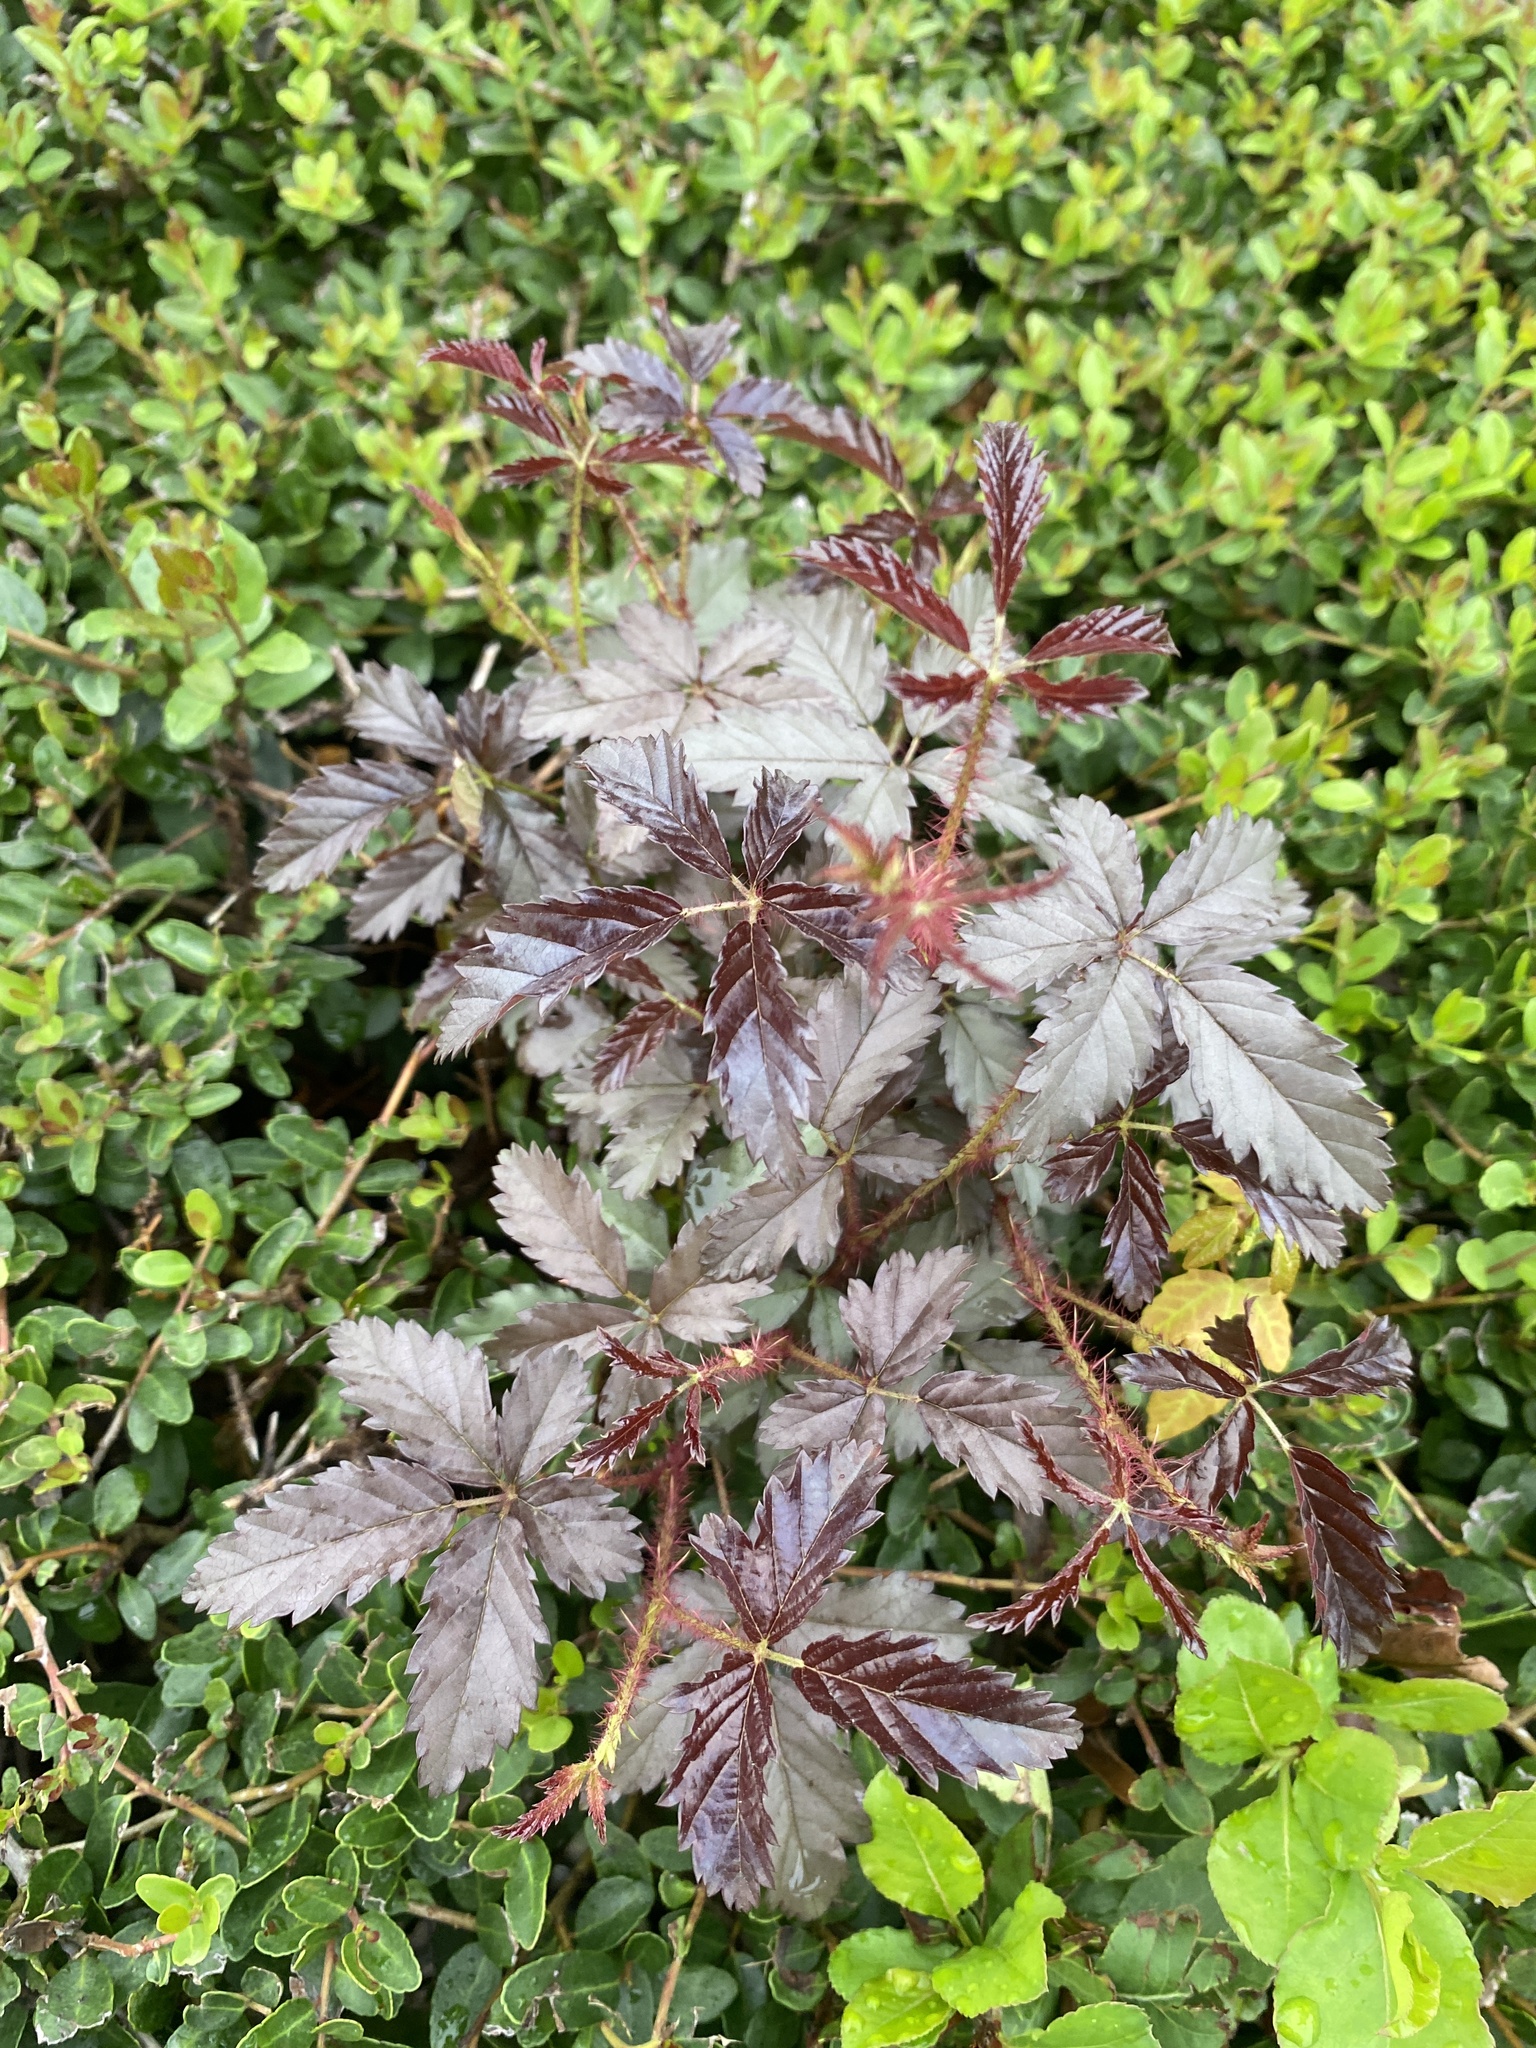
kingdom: Plantae
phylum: Tracheophyta
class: Magnoliopsida
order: Rosales
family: Rosaceae
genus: Rubus
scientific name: Rubus trivialis
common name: Southern dewberry
